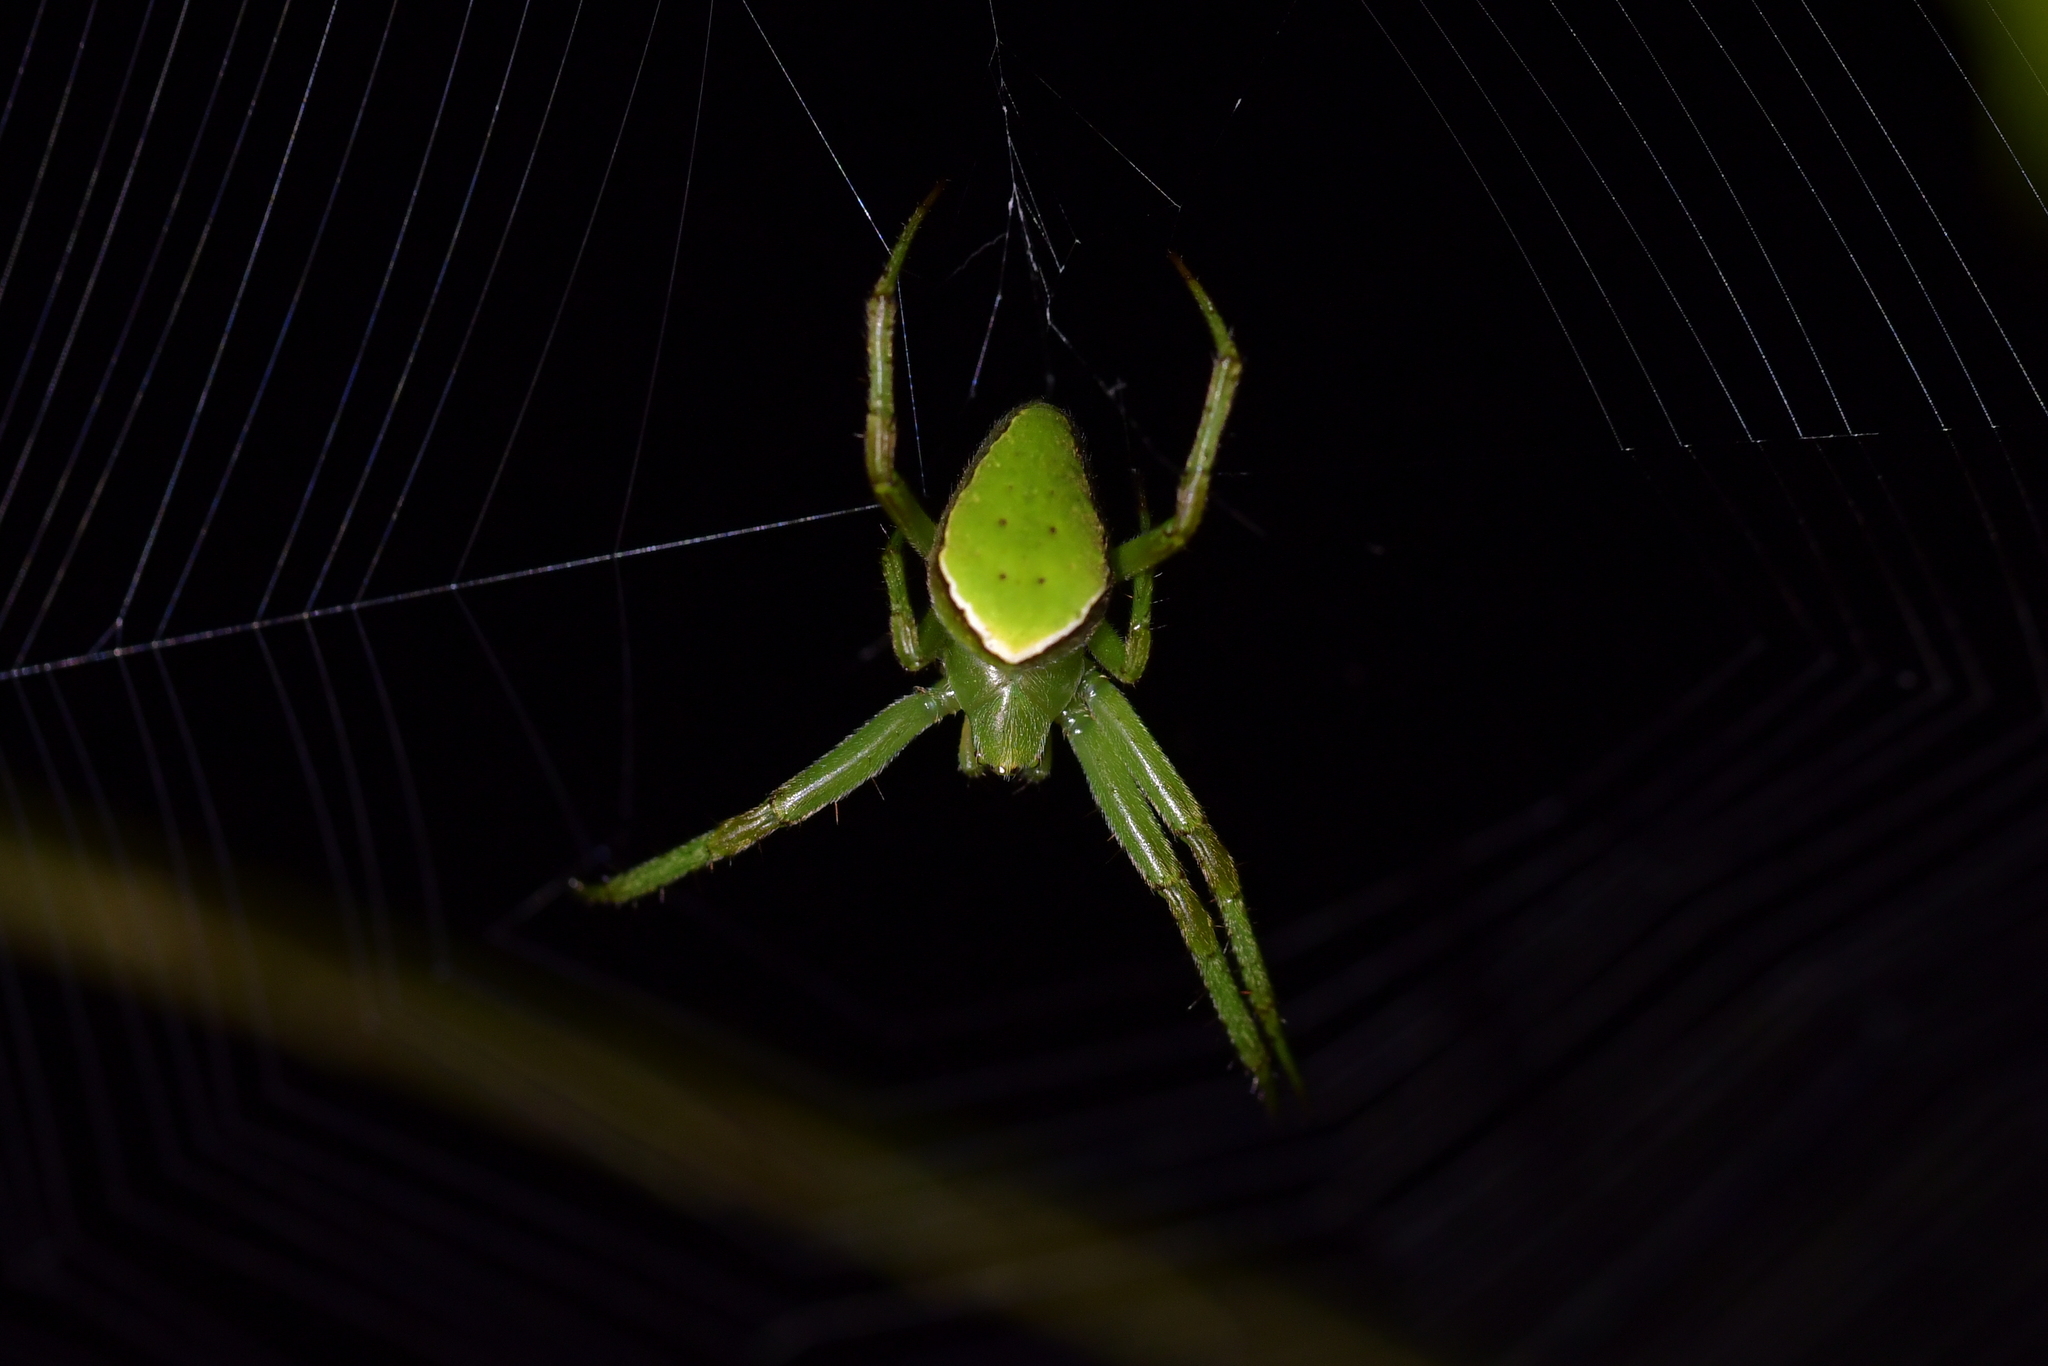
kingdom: Animalia
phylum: Arthropoda
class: Arachnida
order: Araneae
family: Araneidae
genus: Colaranea
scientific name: Colaranea viriditas
